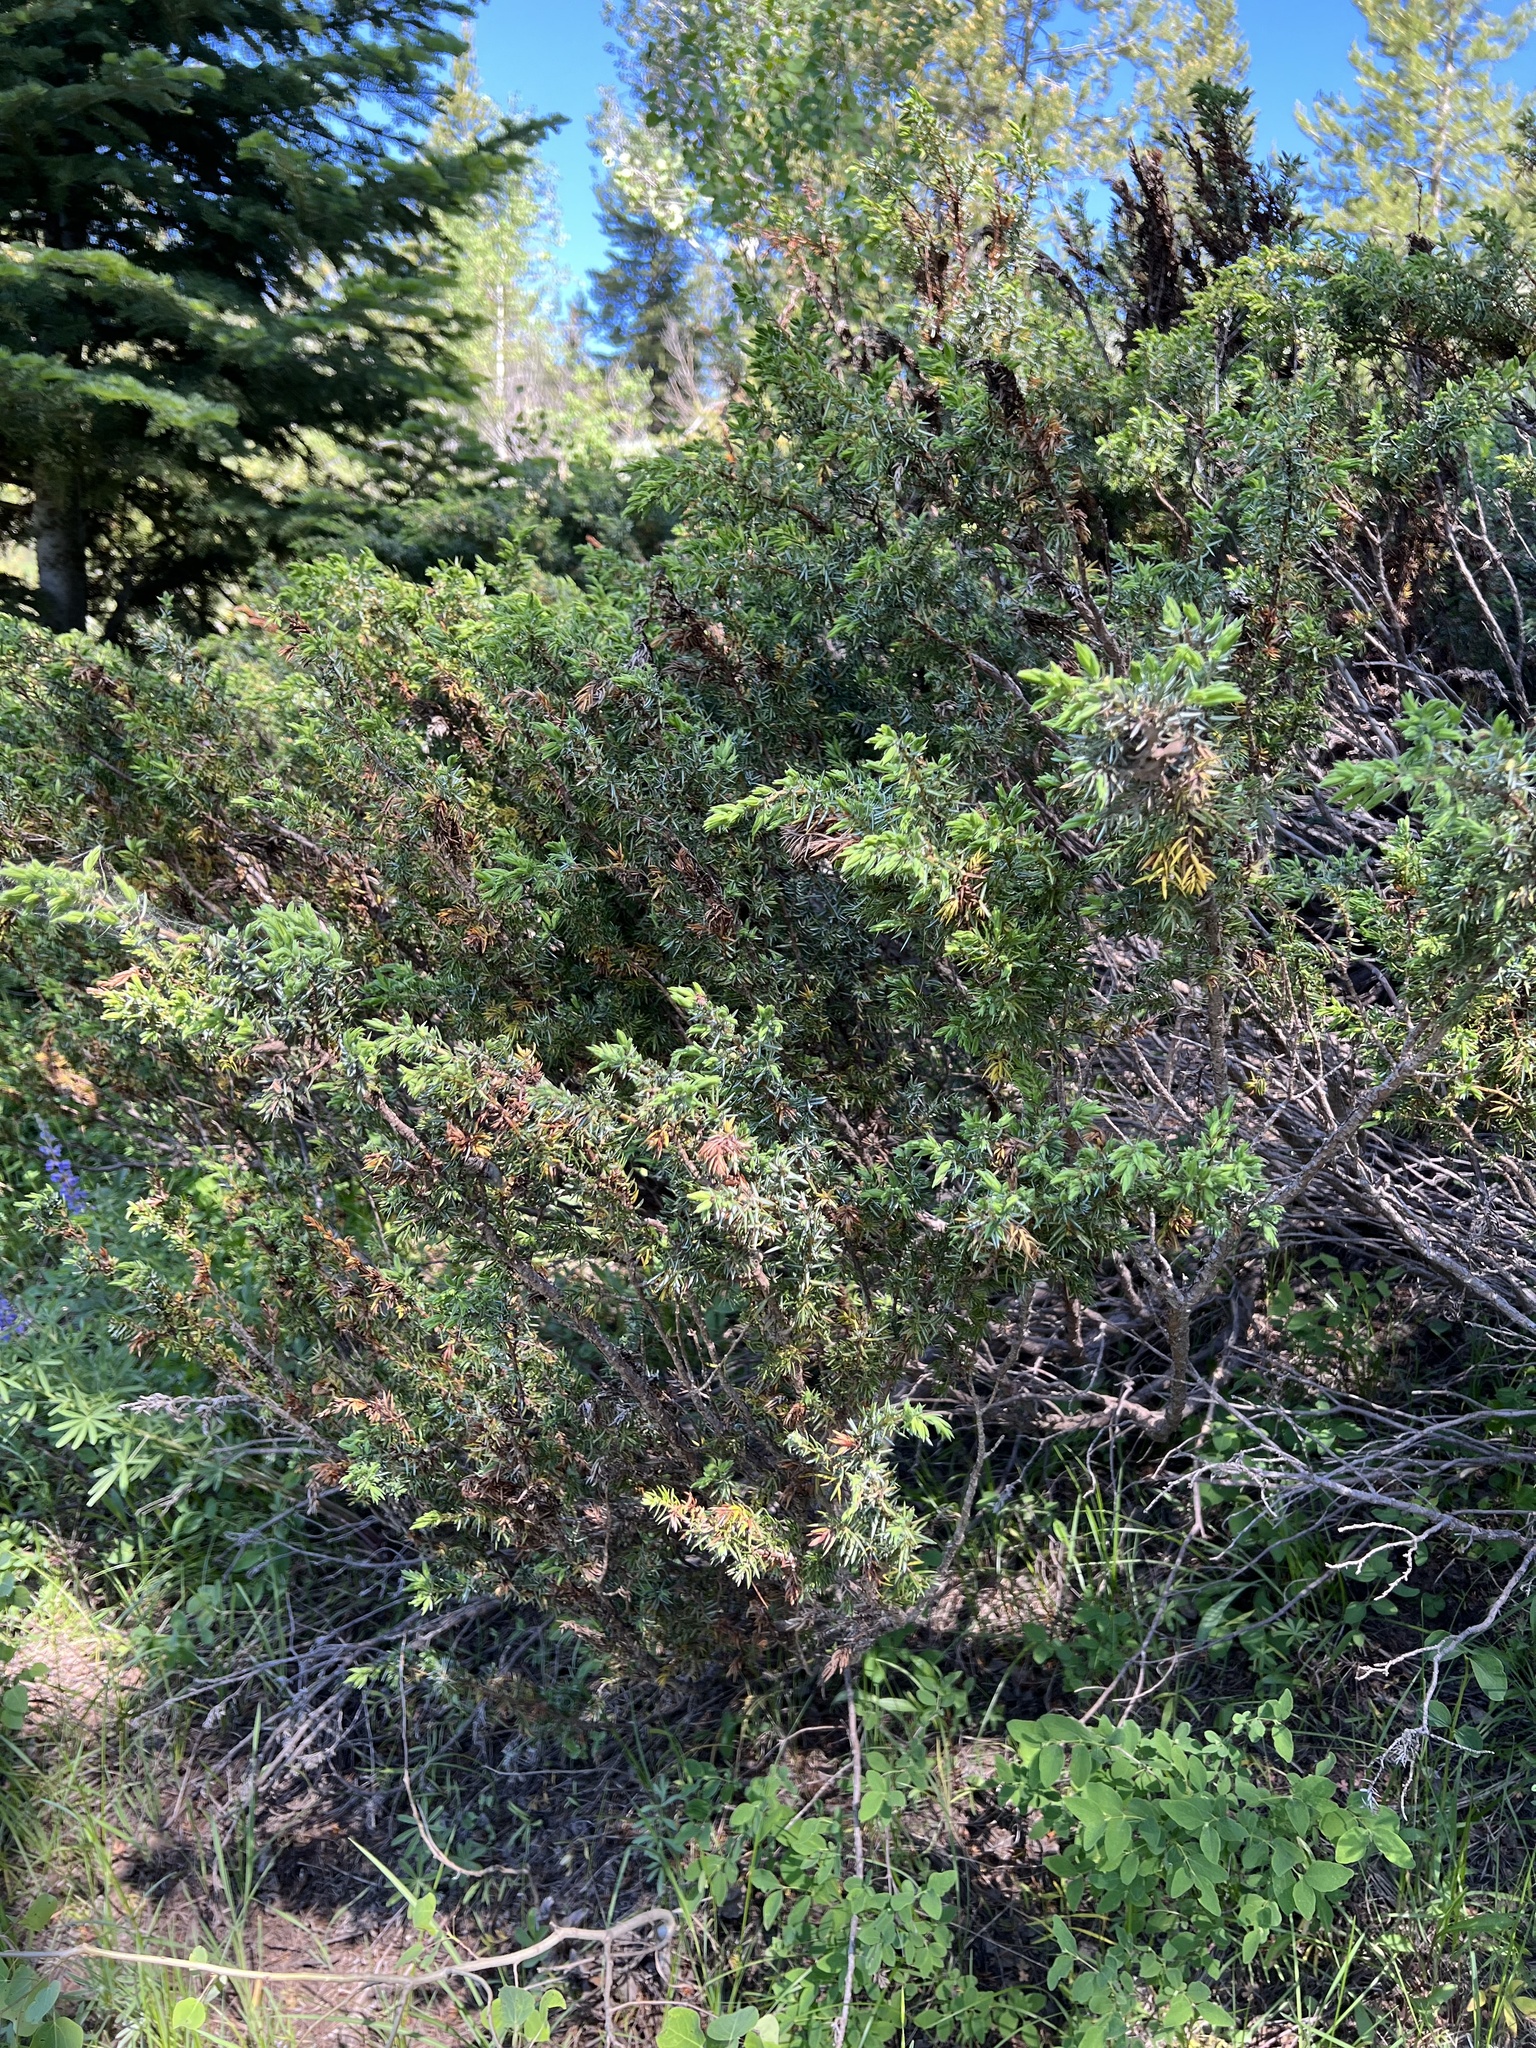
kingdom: Plantae
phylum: Tracheophyta
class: Pinopsida
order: Pinales
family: Cupressaceae
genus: Juniperus
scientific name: Juniperus communis
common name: Common juniper
